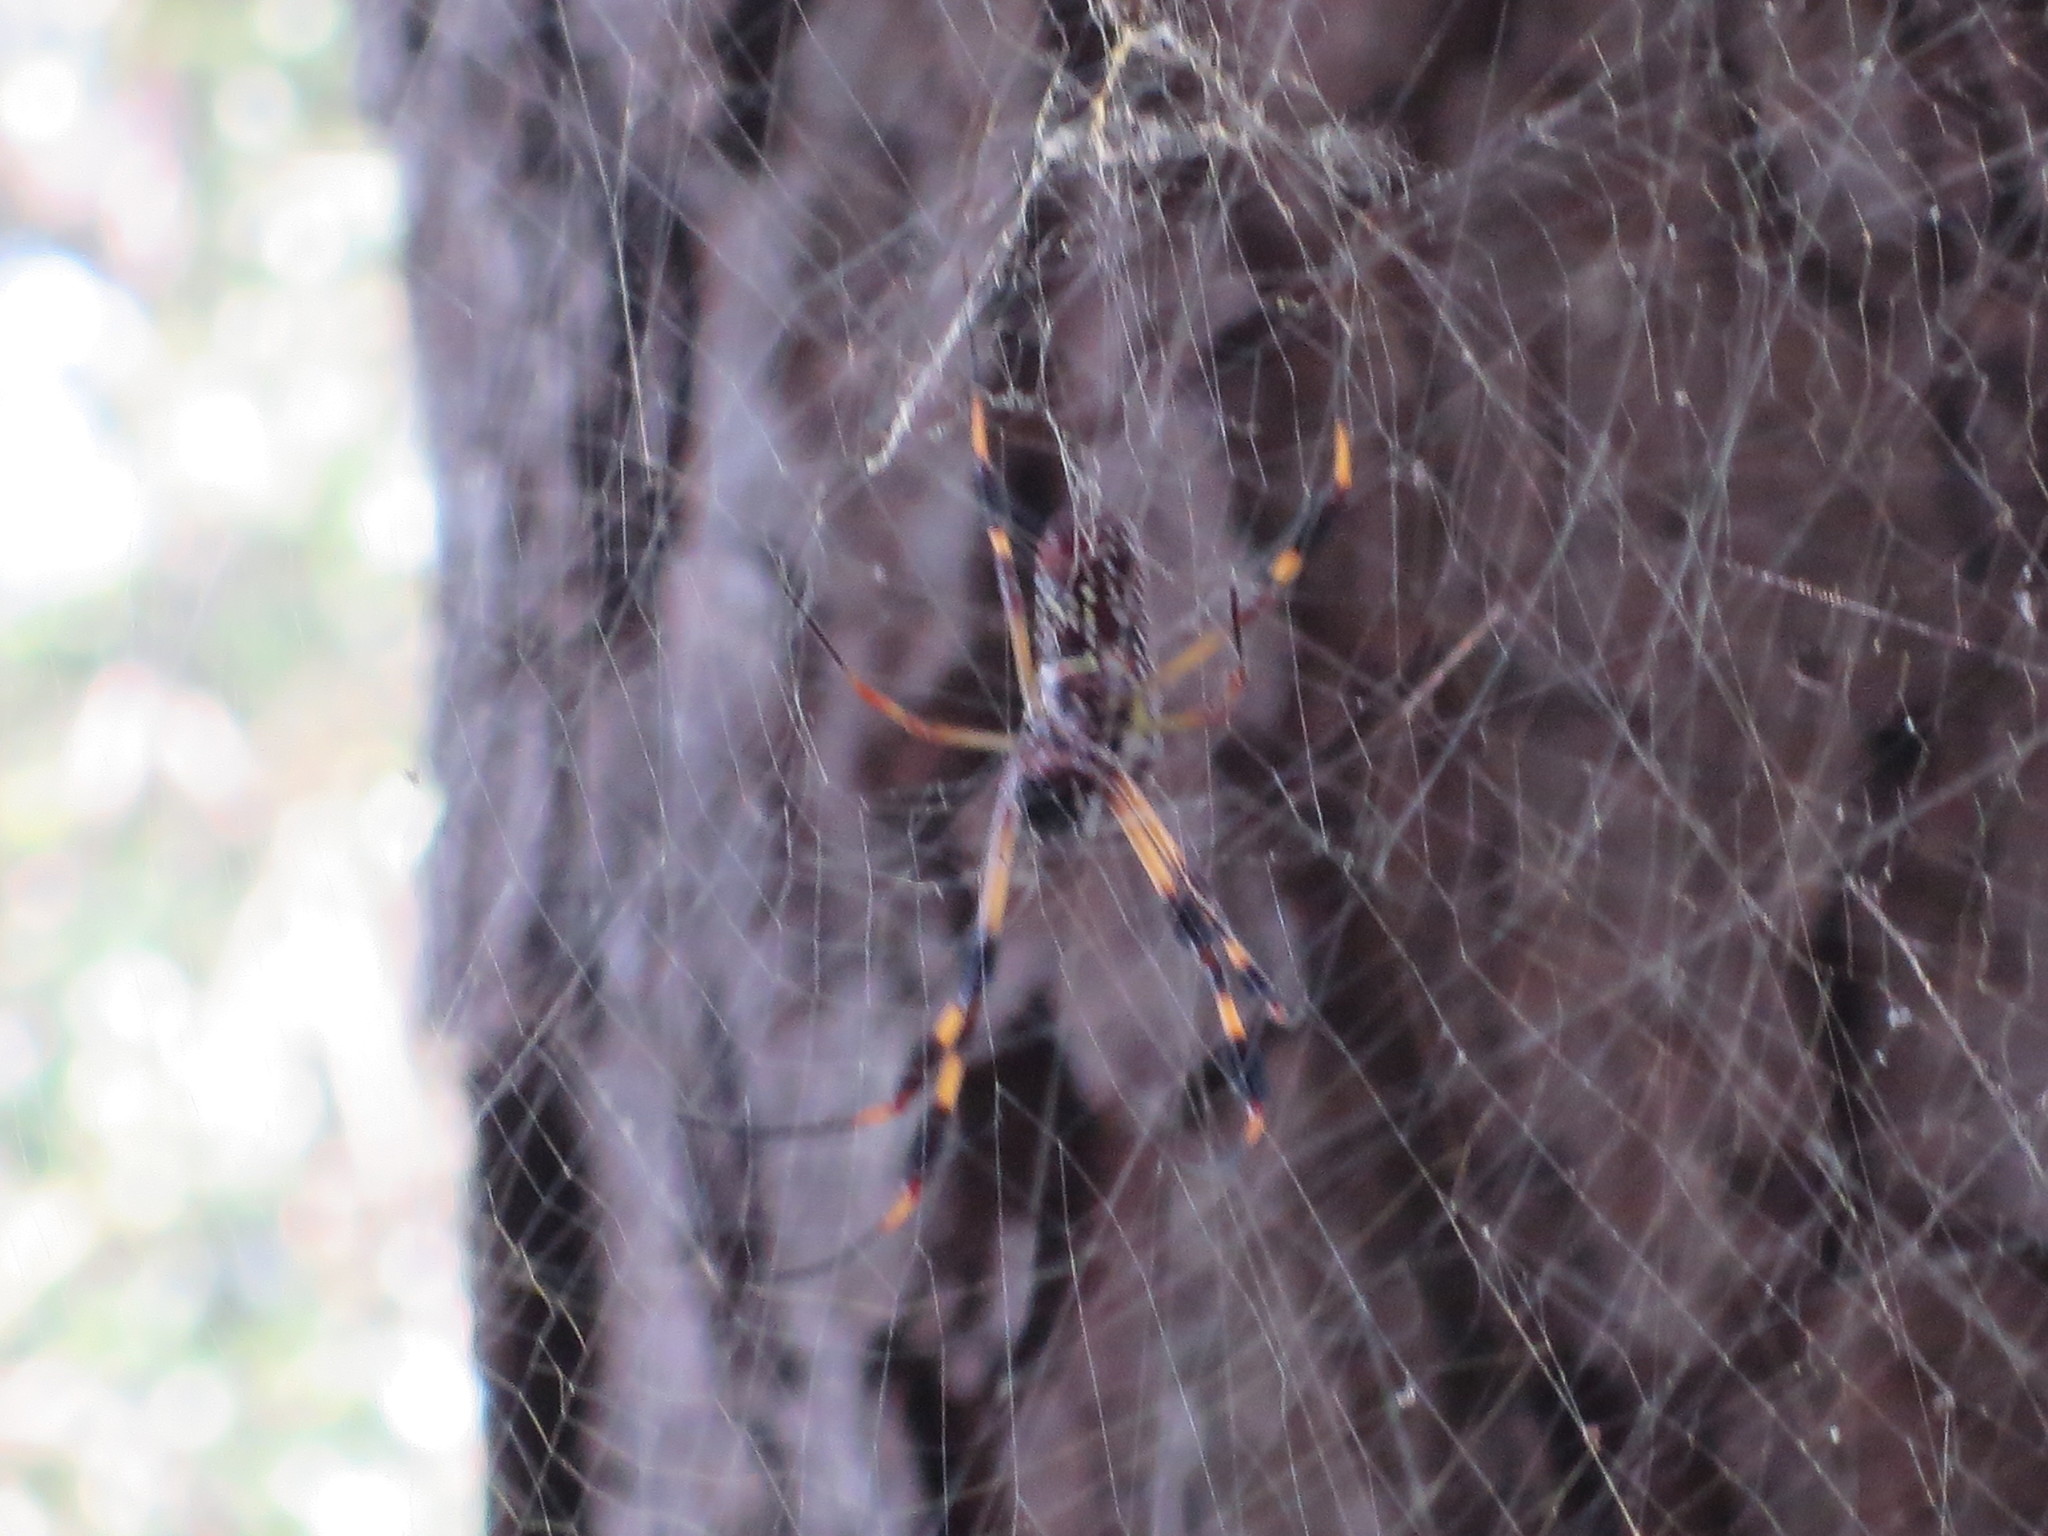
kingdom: Animalia
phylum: Arthropoda
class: Arachnida
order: Araneae
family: Araneidae
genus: Trichonephila
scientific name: Trichonephila clavipes
